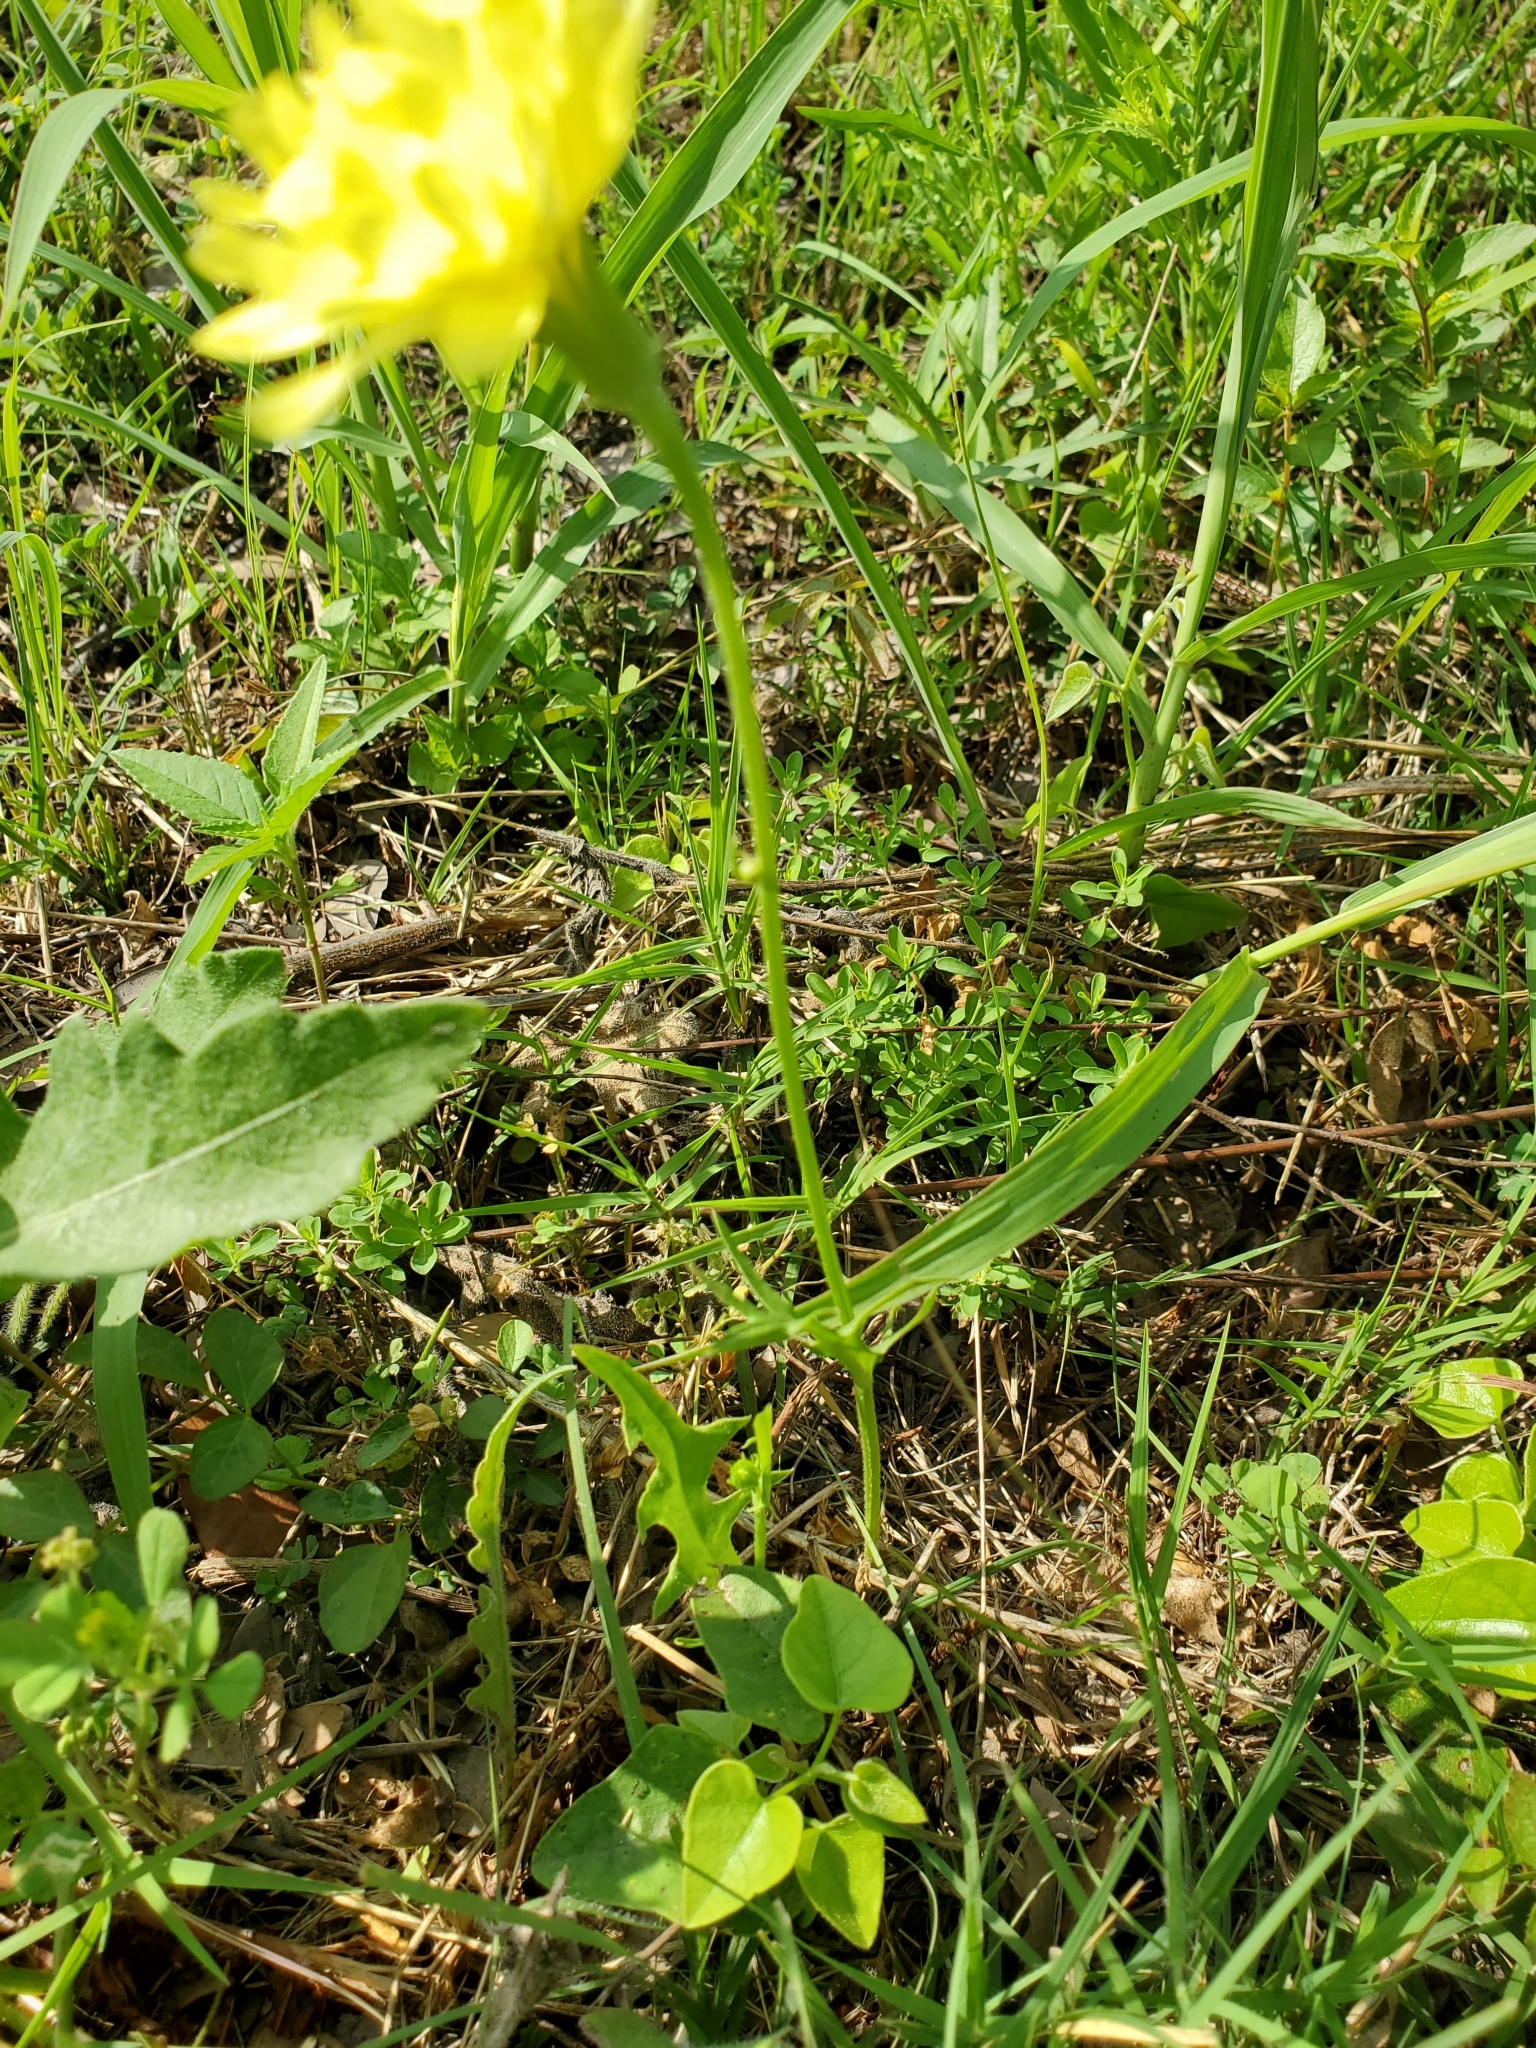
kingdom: Plantae
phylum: Tracheophyta
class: Magnoliopsida
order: Asterales
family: Asteraceae
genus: Pyrrhopappus
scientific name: Pyrrhopappus pauciflorus
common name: Texas false dandelion
